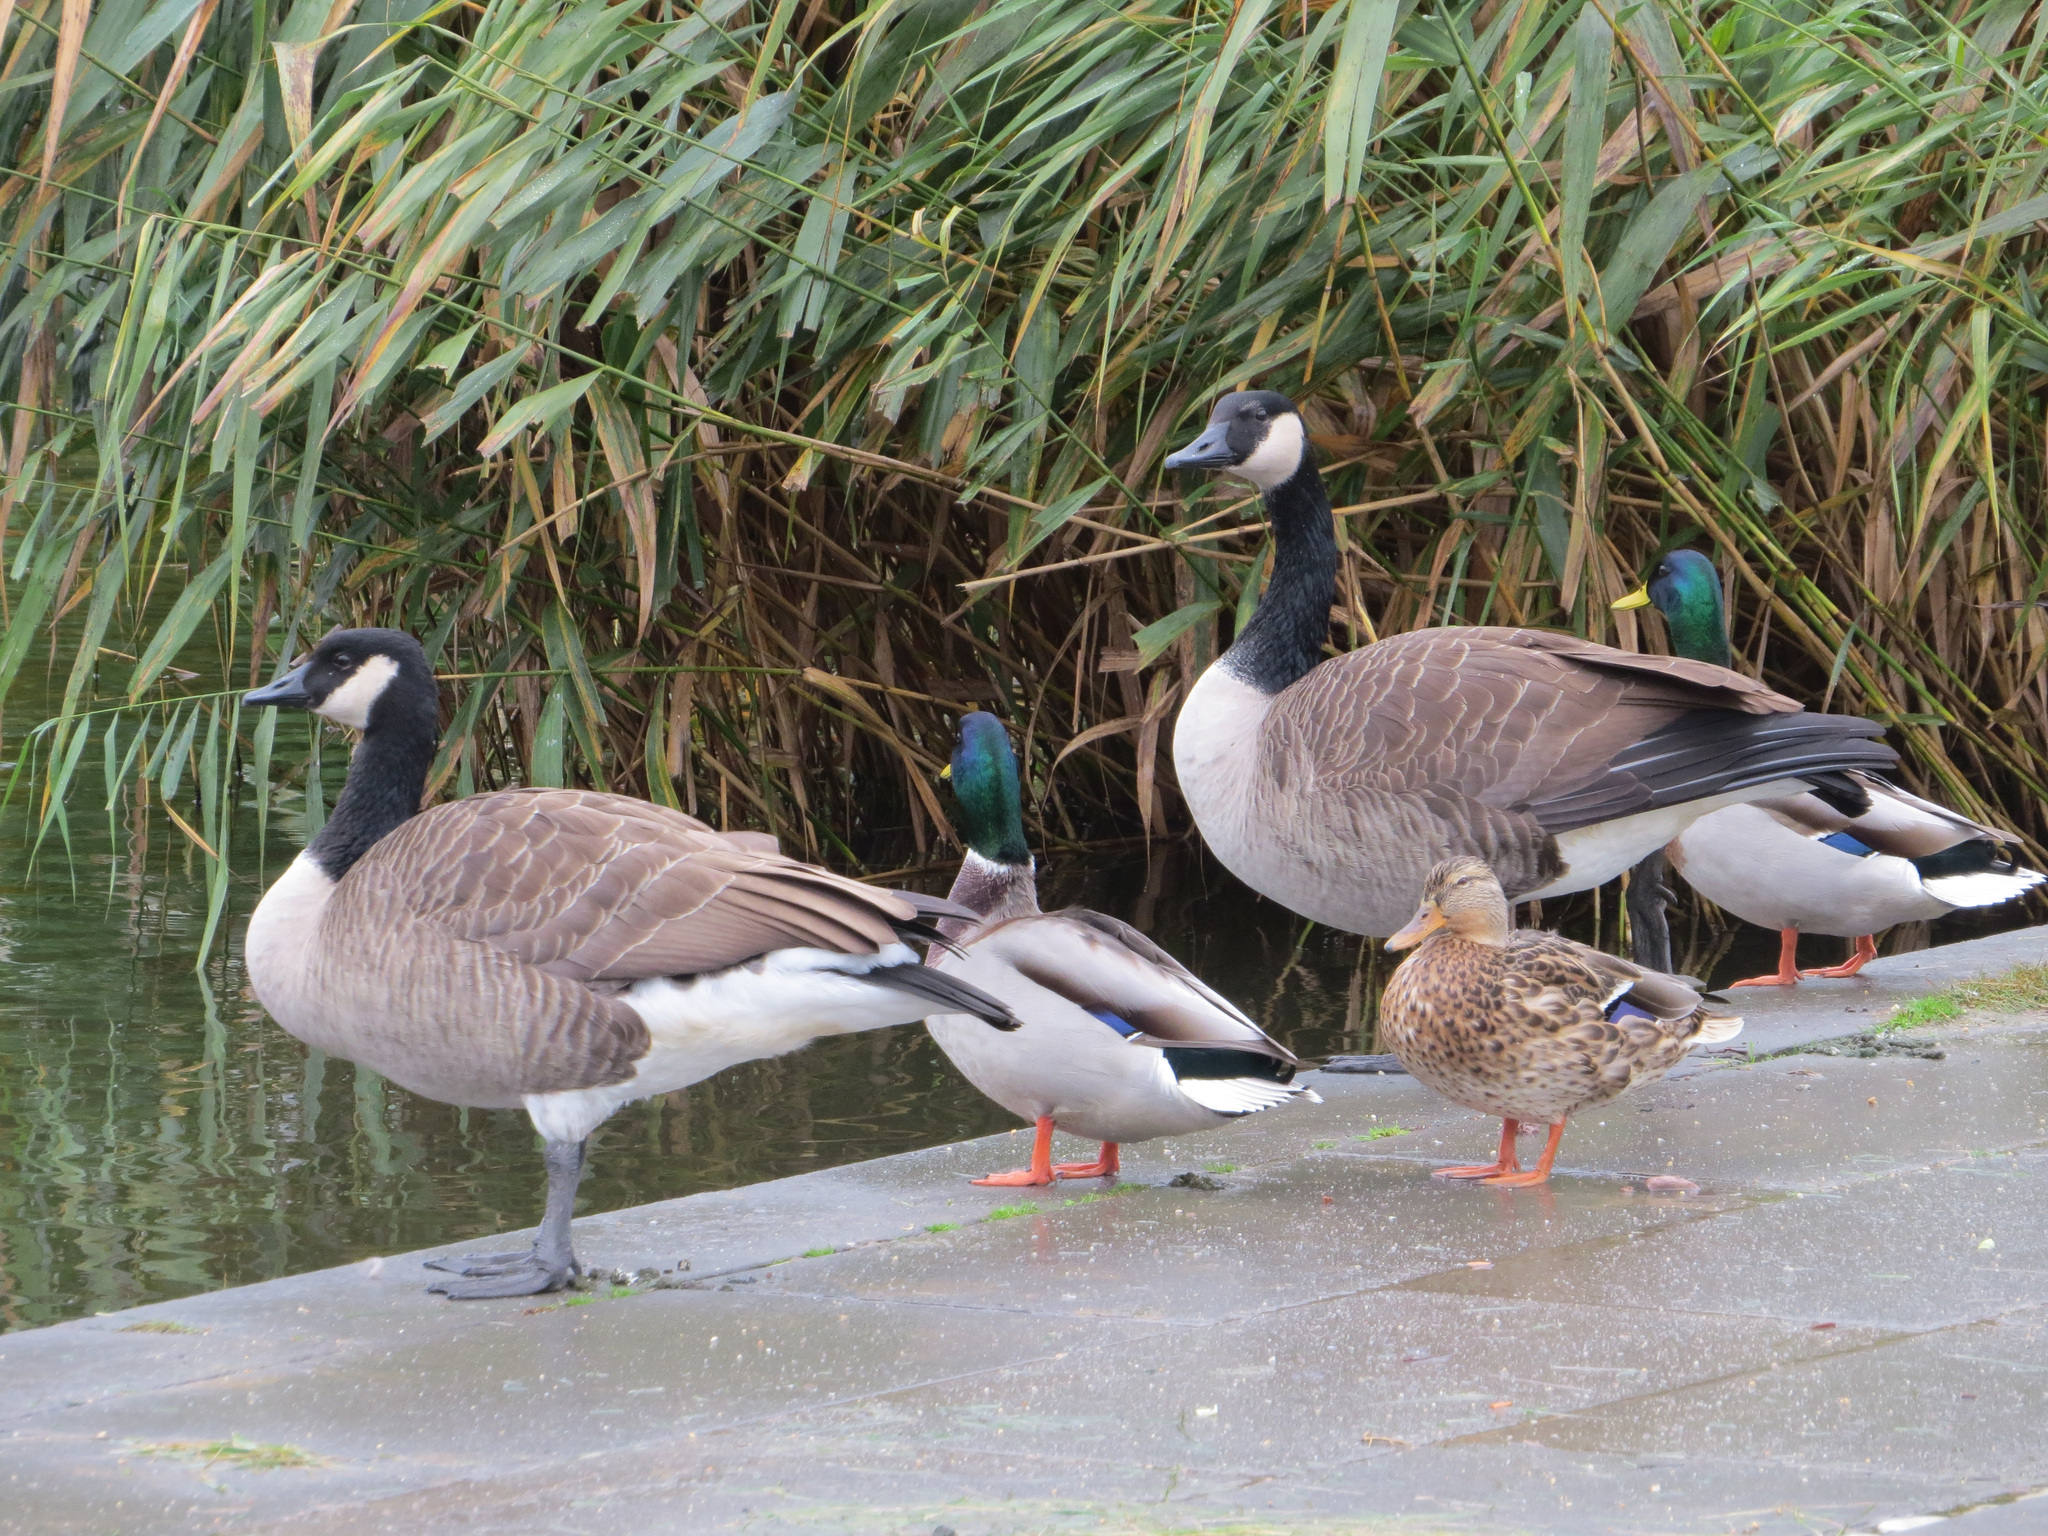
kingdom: Animalia
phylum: Chordata
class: Aves
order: Anseriformes
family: Anatidae
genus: Branta
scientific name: Branta canadensis
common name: Canada goose
